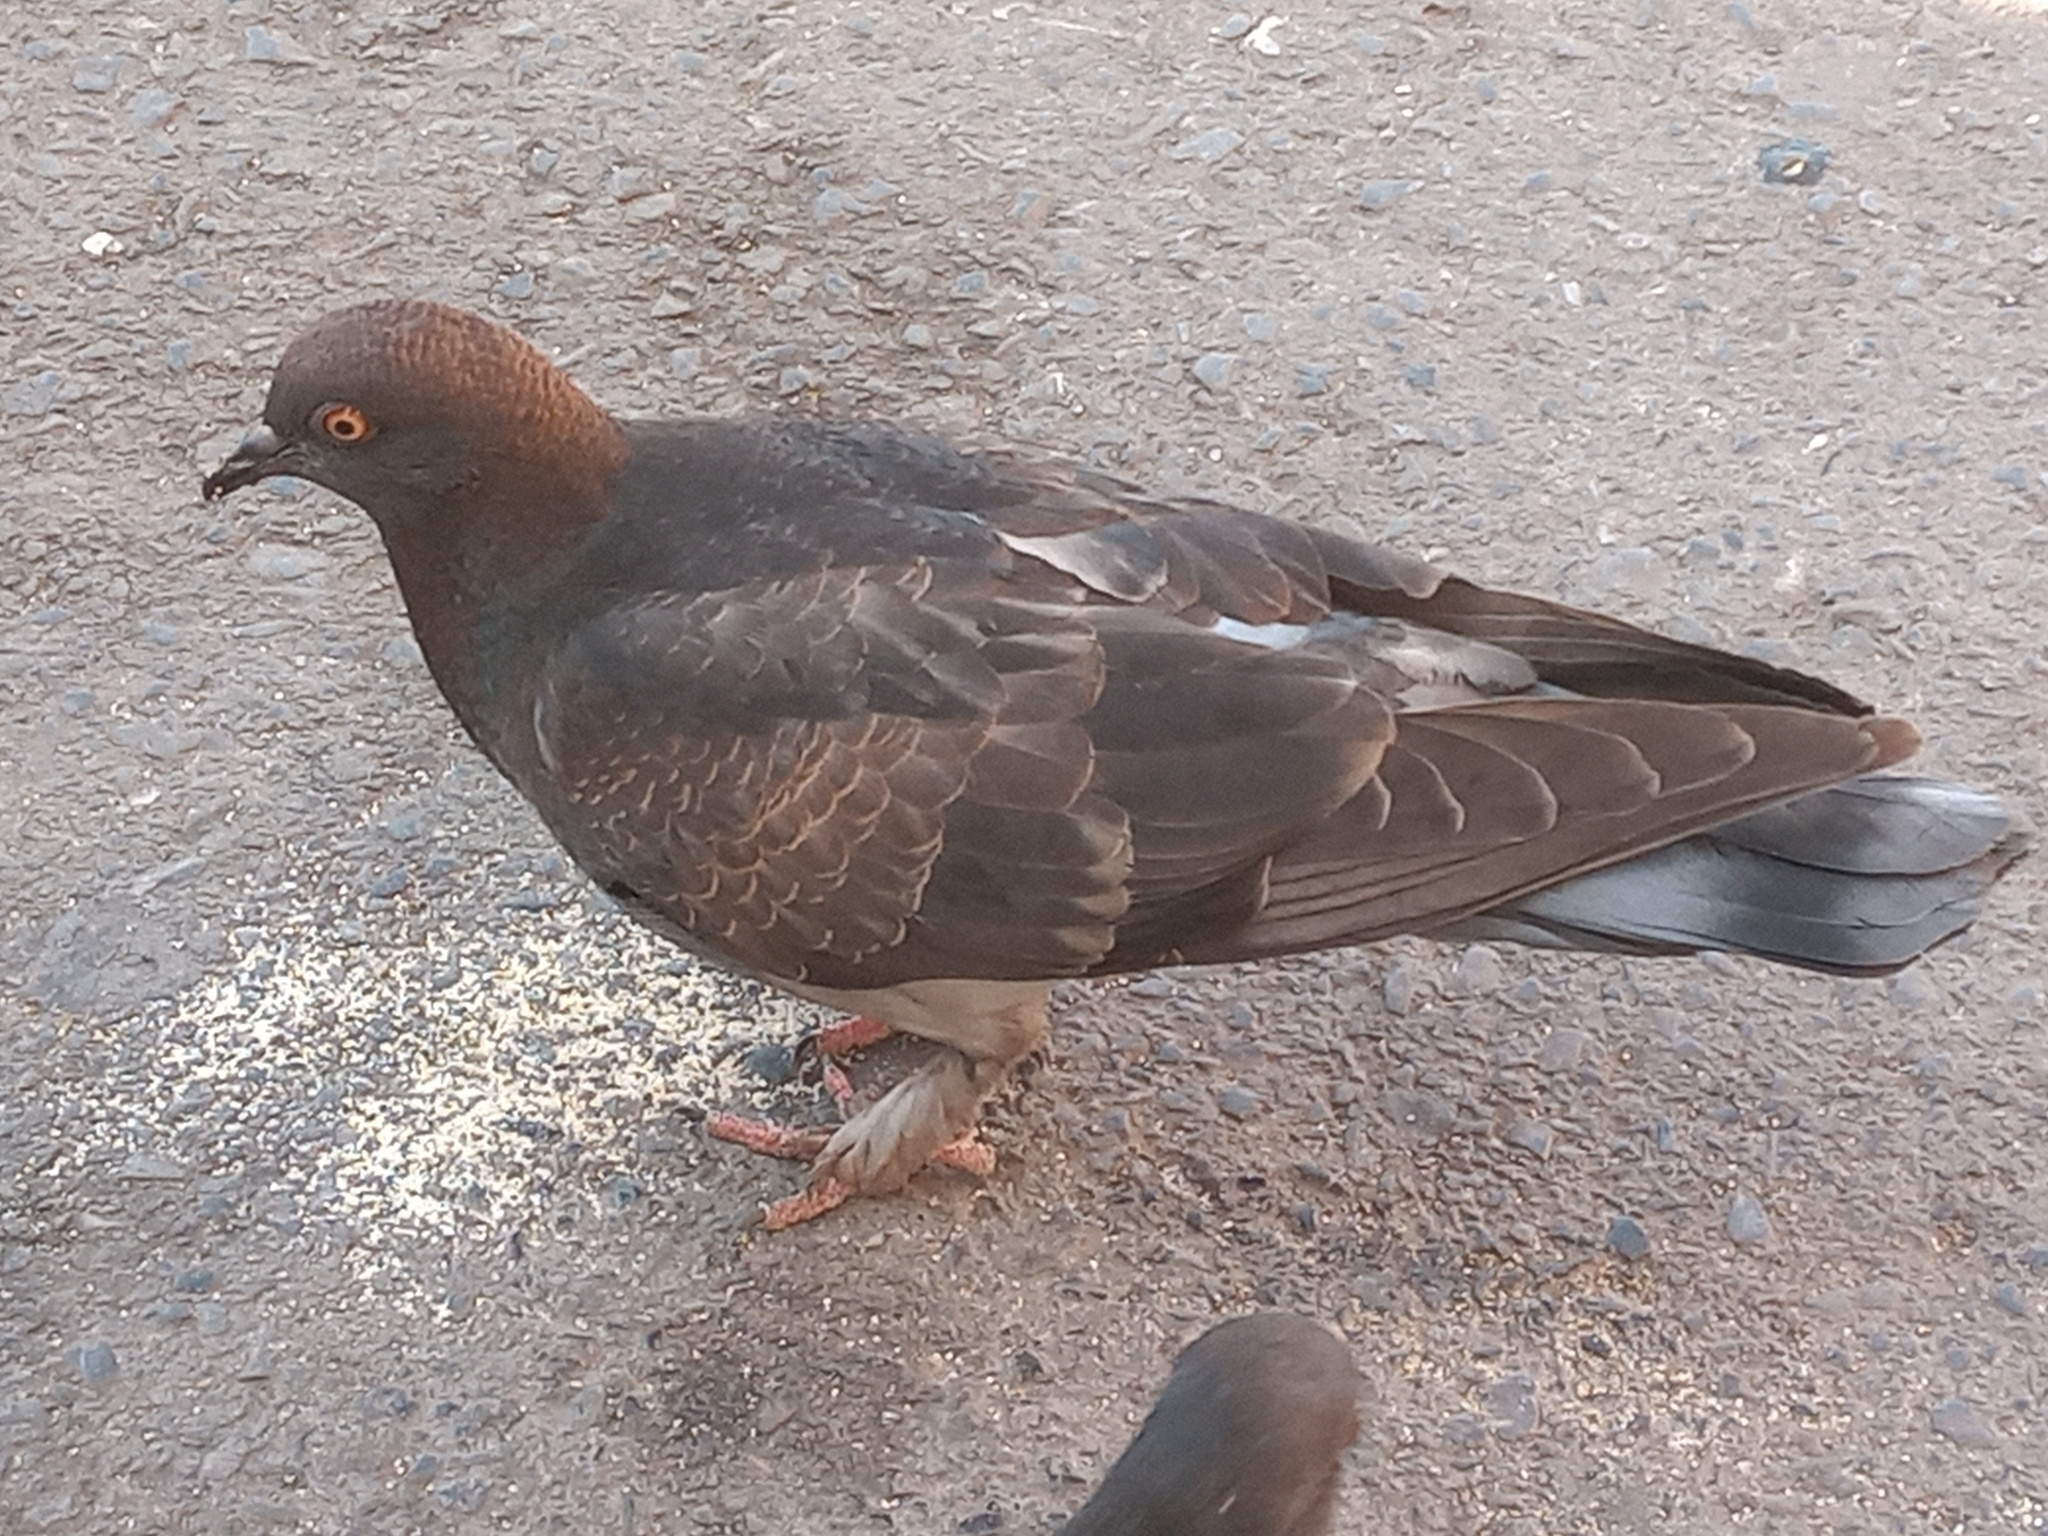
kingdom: Animalia
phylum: Chordata
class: Aves
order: Columbiformes
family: Columbidae
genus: Columba
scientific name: Columba livia
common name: Rock pigeon
